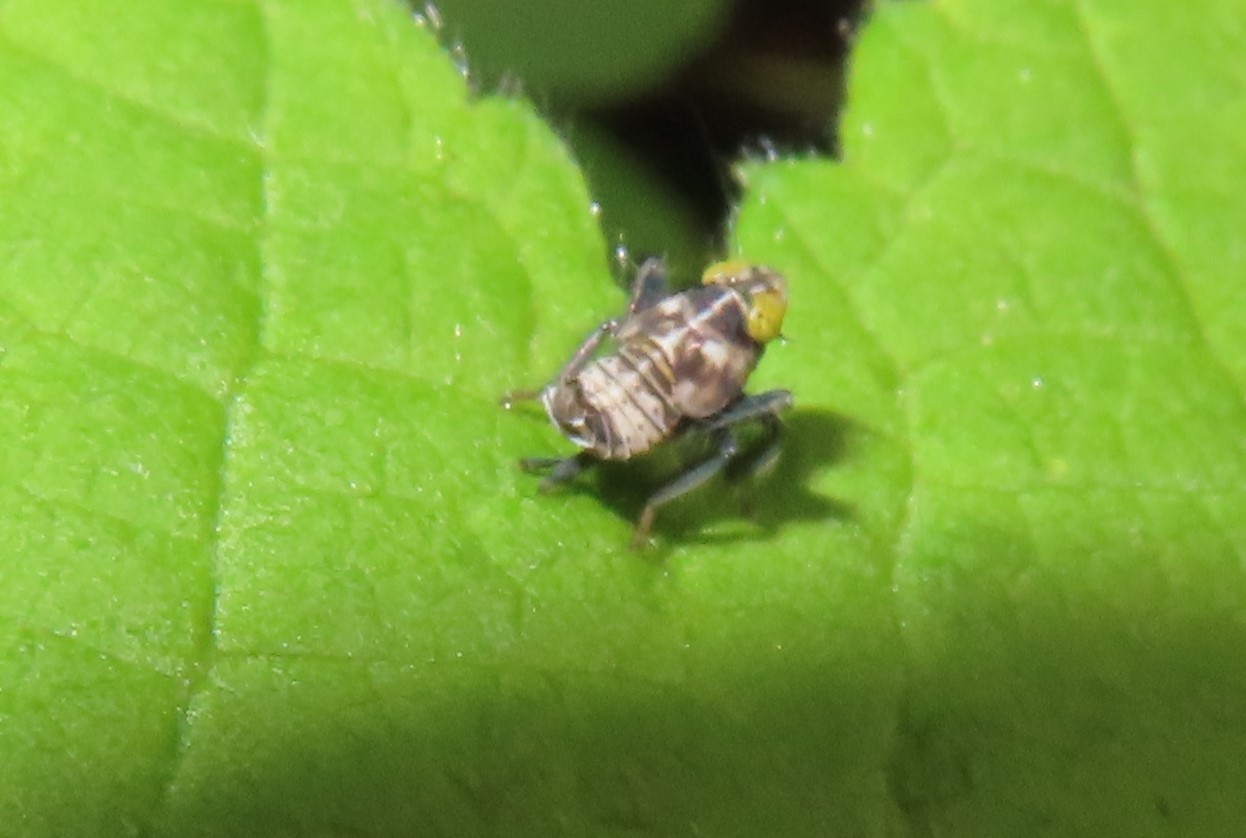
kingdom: Animalia
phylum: Arthropoda
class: Insecta
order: Hemiptera
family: Cicadellidae
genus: Jikradia
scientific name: Jikradia olitoria
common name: Coppery leafhopper
